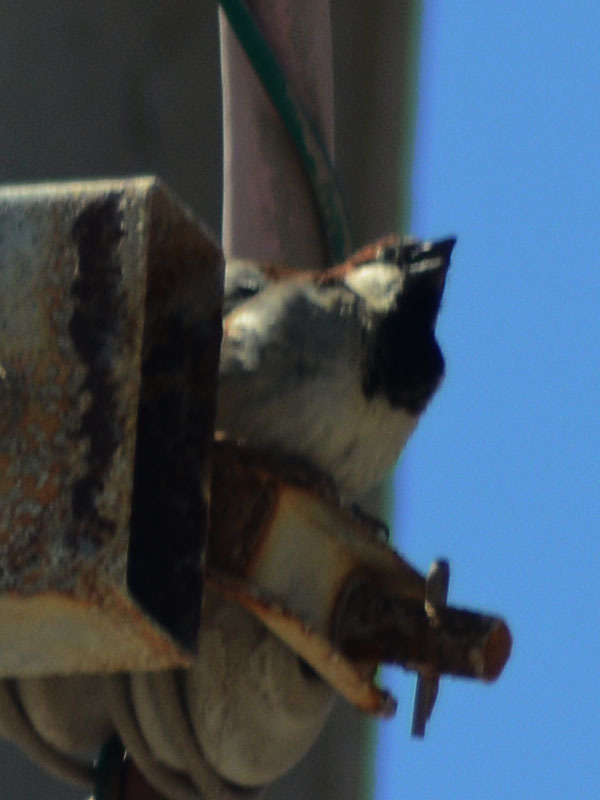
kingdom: Animalia
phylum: Chordata
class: Aves
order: Passeriformes
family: Passeridae
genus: Passer
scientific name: Passer domesticus
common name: House sparrow
